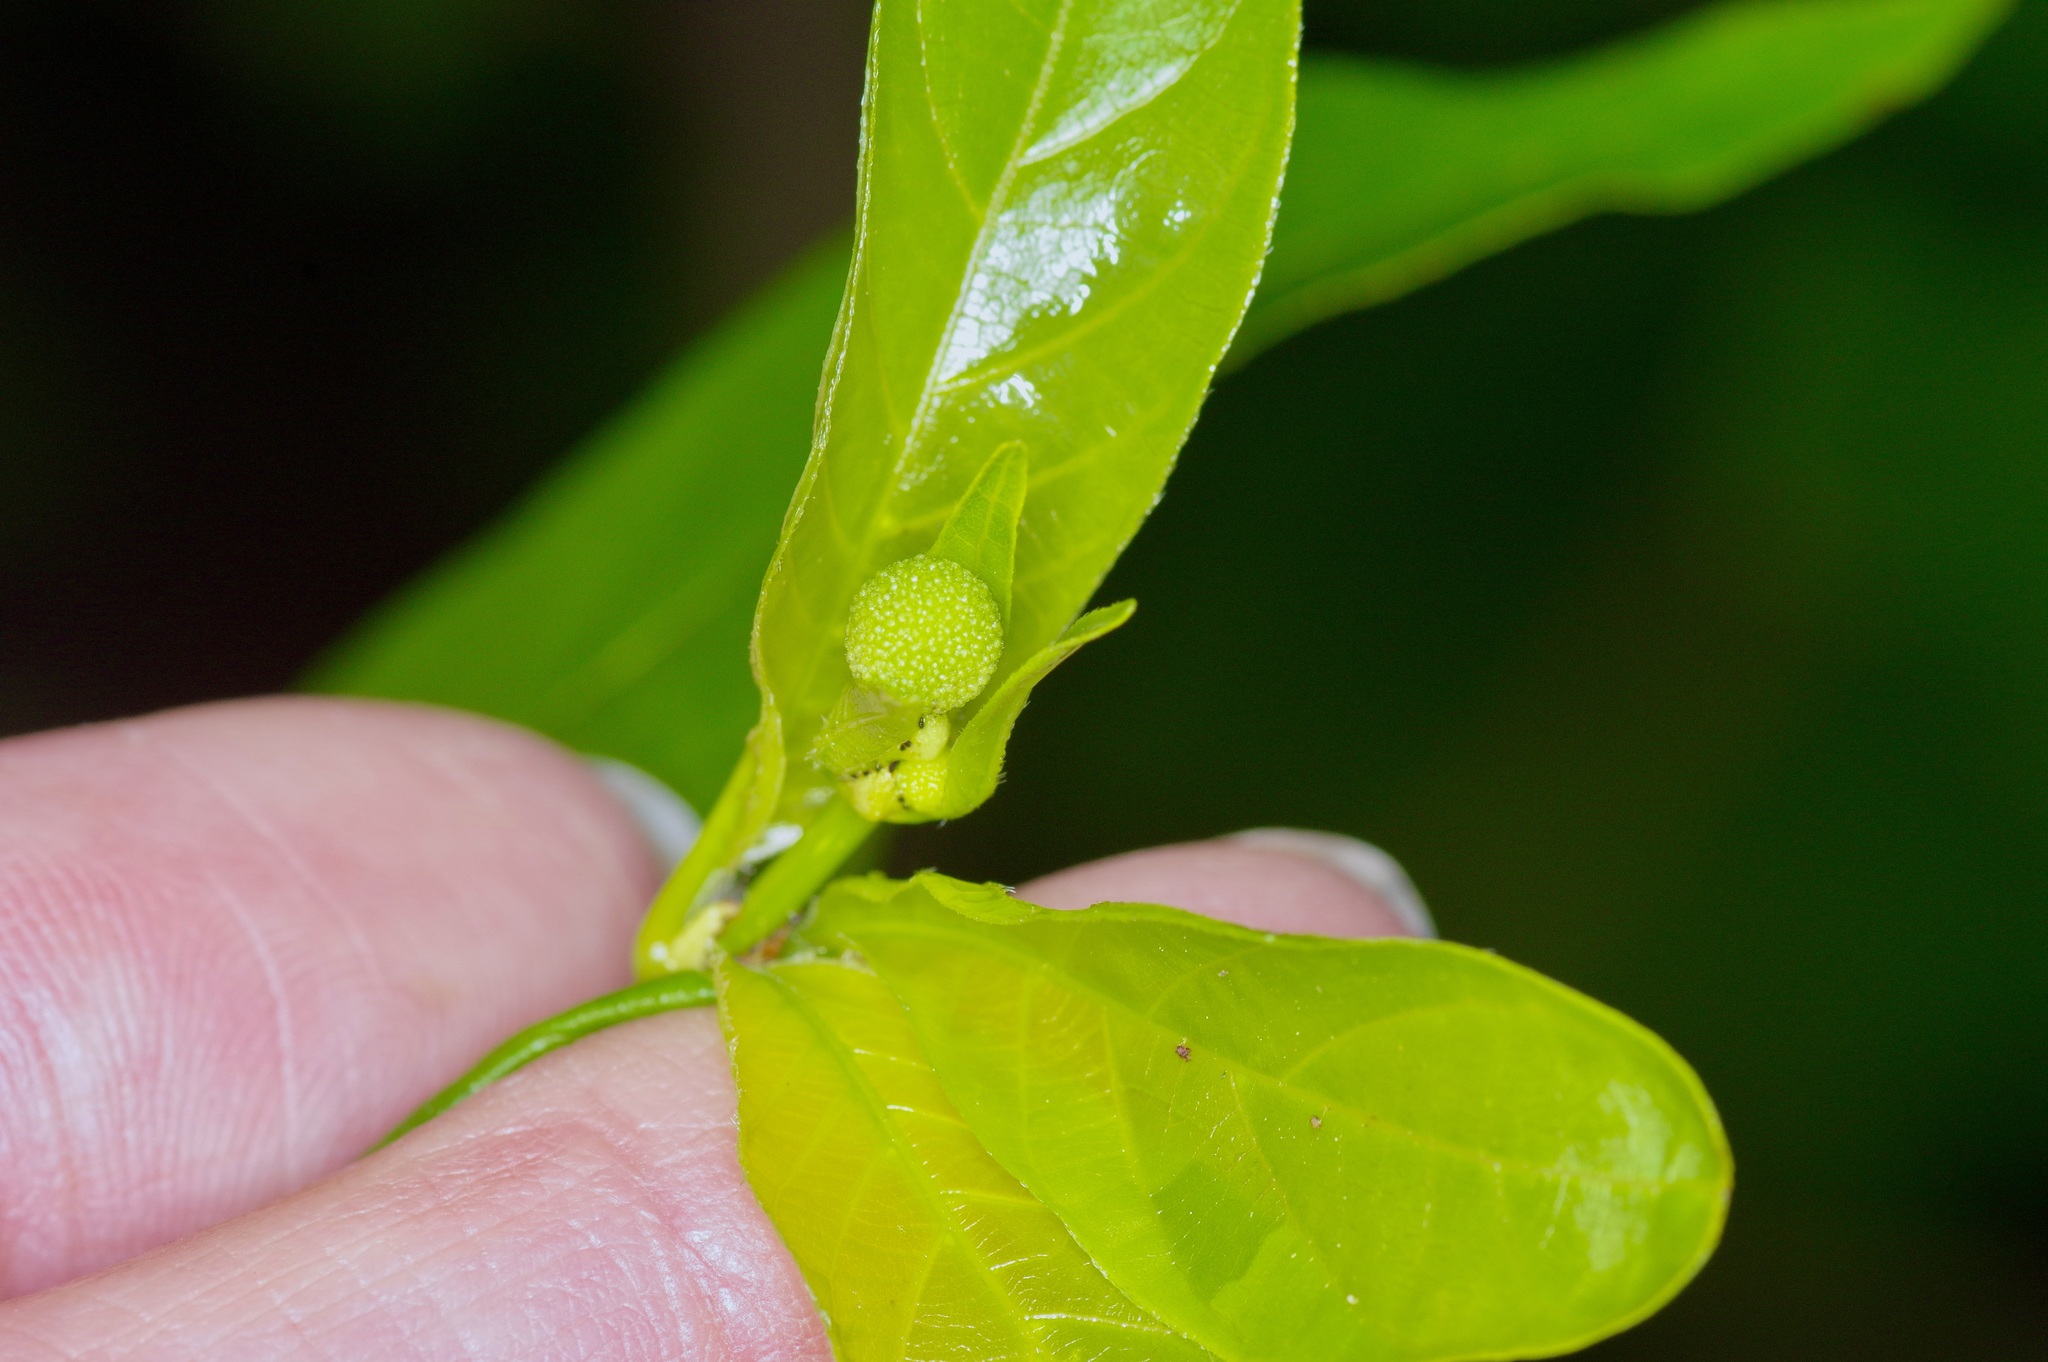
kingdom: Plantae
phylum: Tracheophyta
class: Magnoliopsida
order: Gentianales
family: Rubiaceae
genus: Cephalanthus
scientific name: Cephalanthus occidentalis
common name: Button-willow
